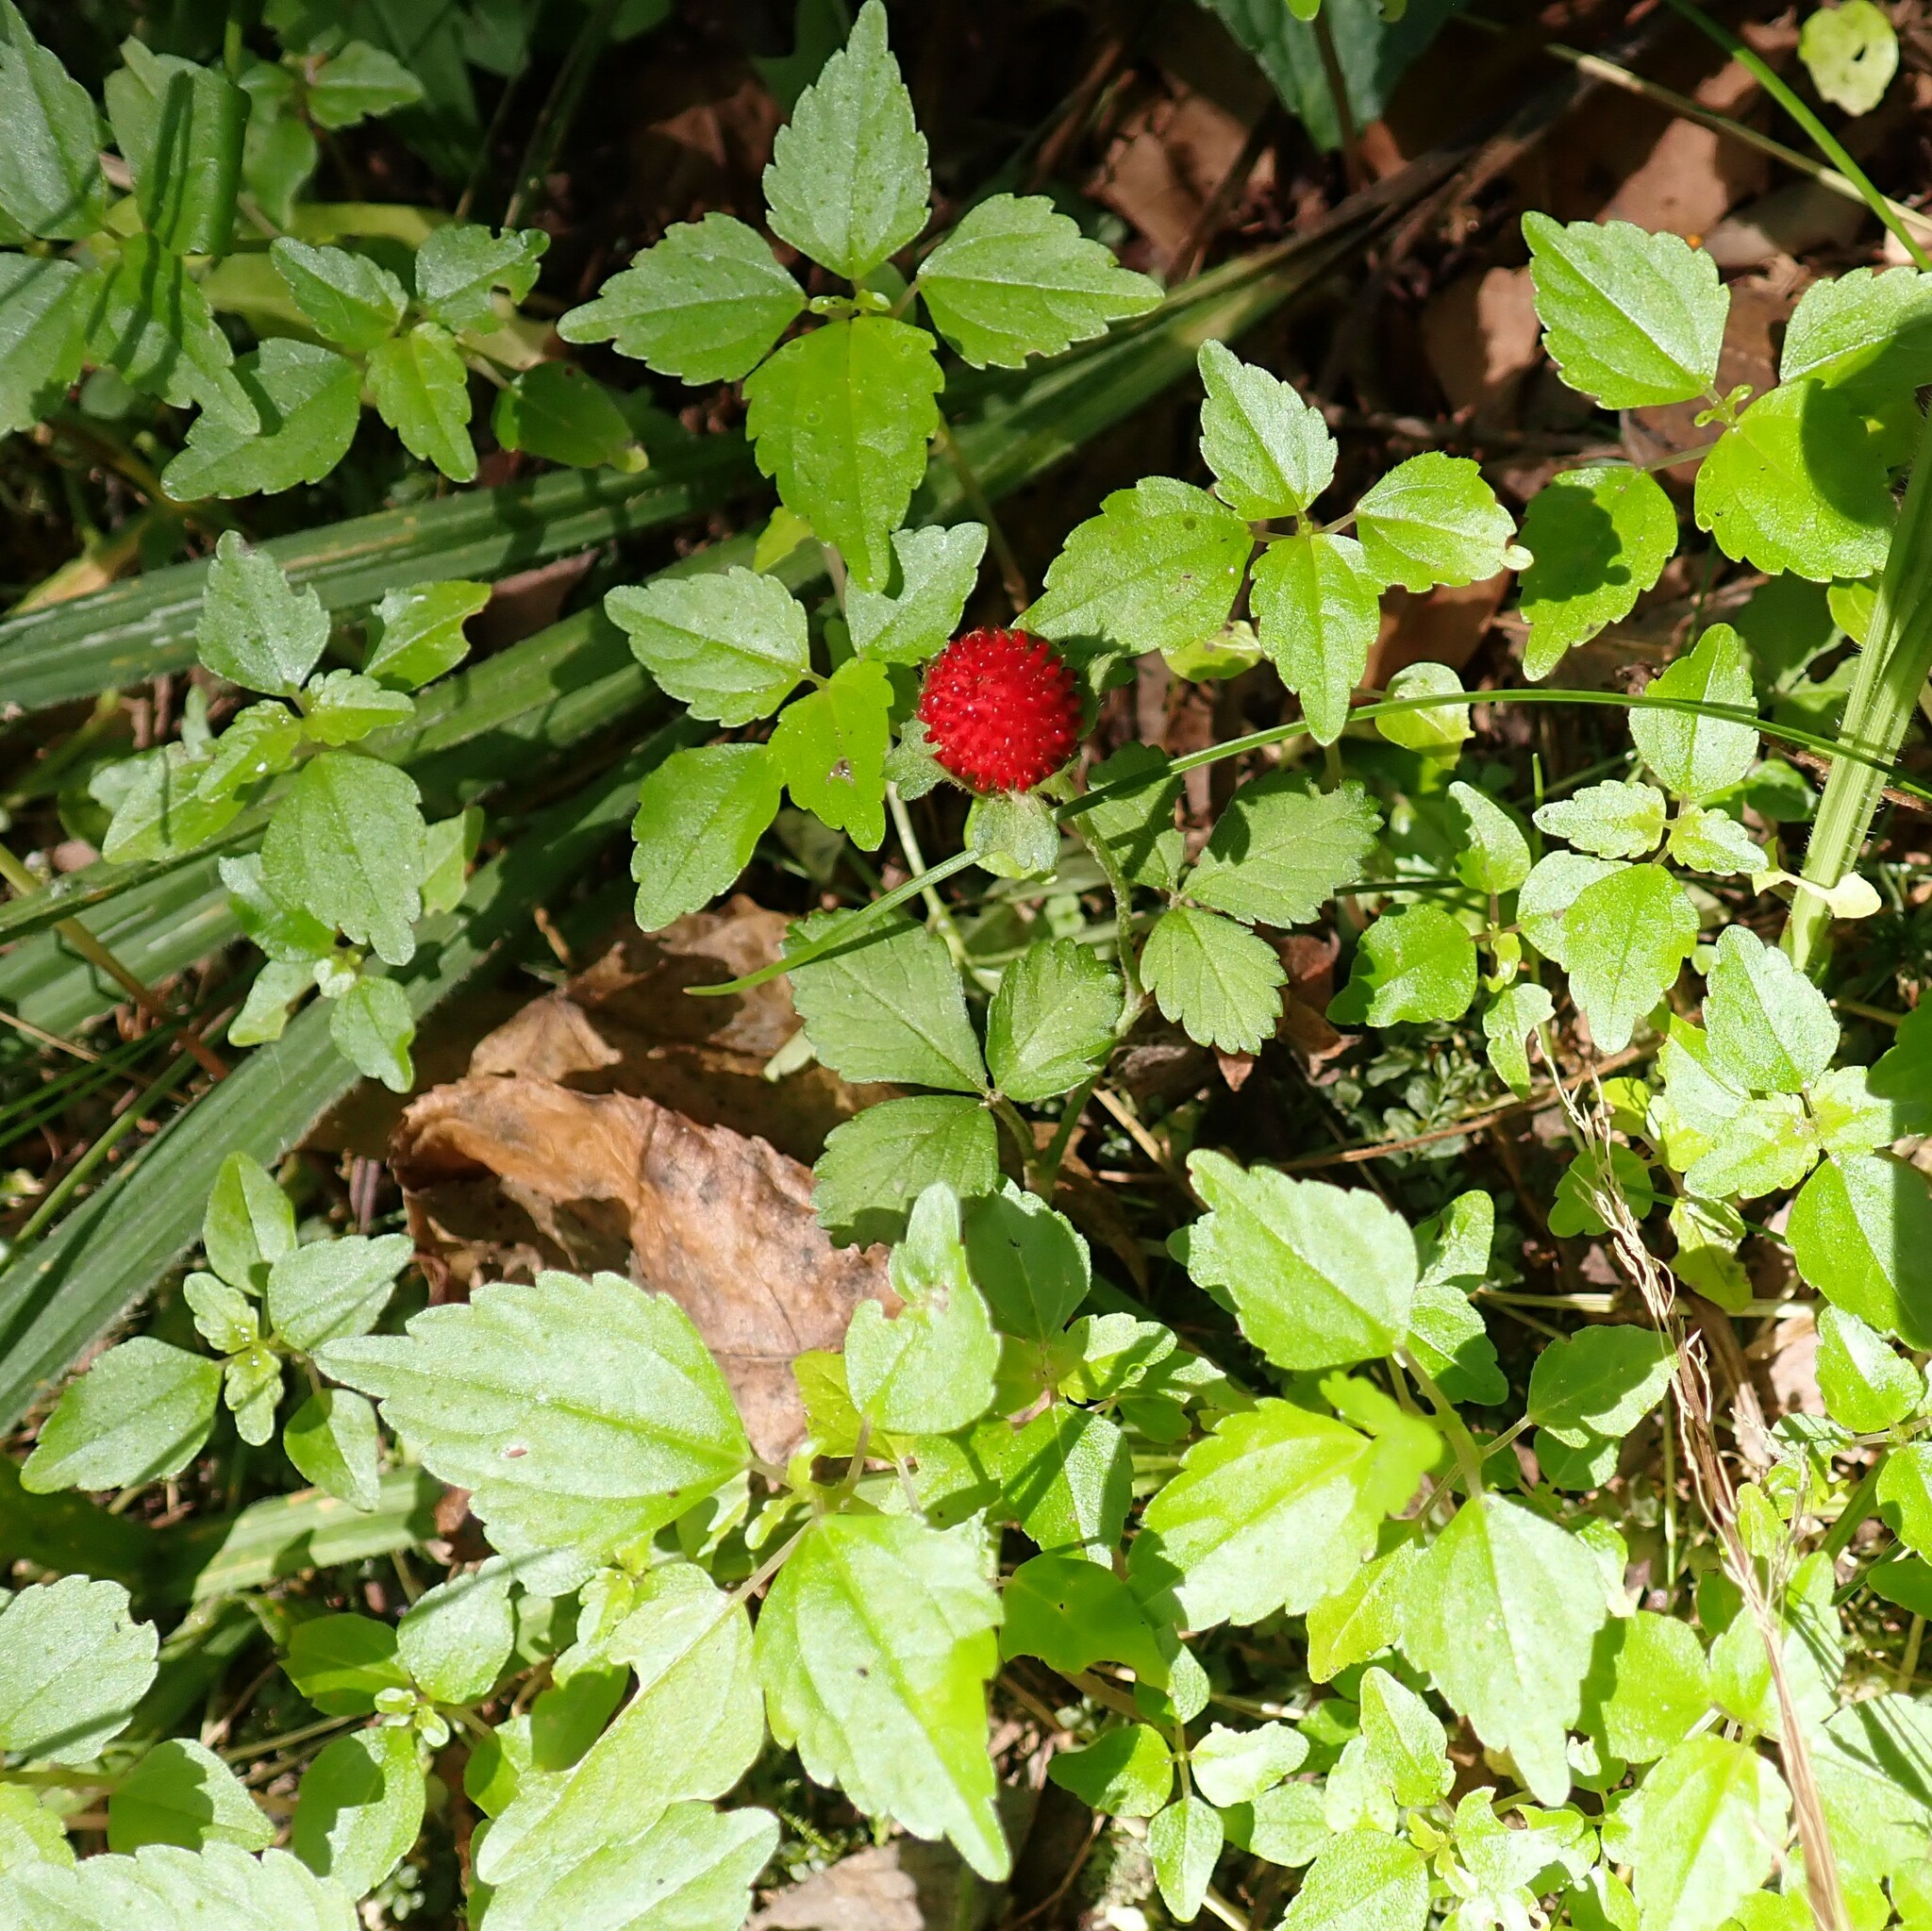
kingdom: Plantae
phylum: Tracheophyta
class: Magnoliopsida
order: Rosales
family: Rosaceae
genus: Potentilla
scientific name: Potentilla indica
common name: Yellow-flowered strawberry
